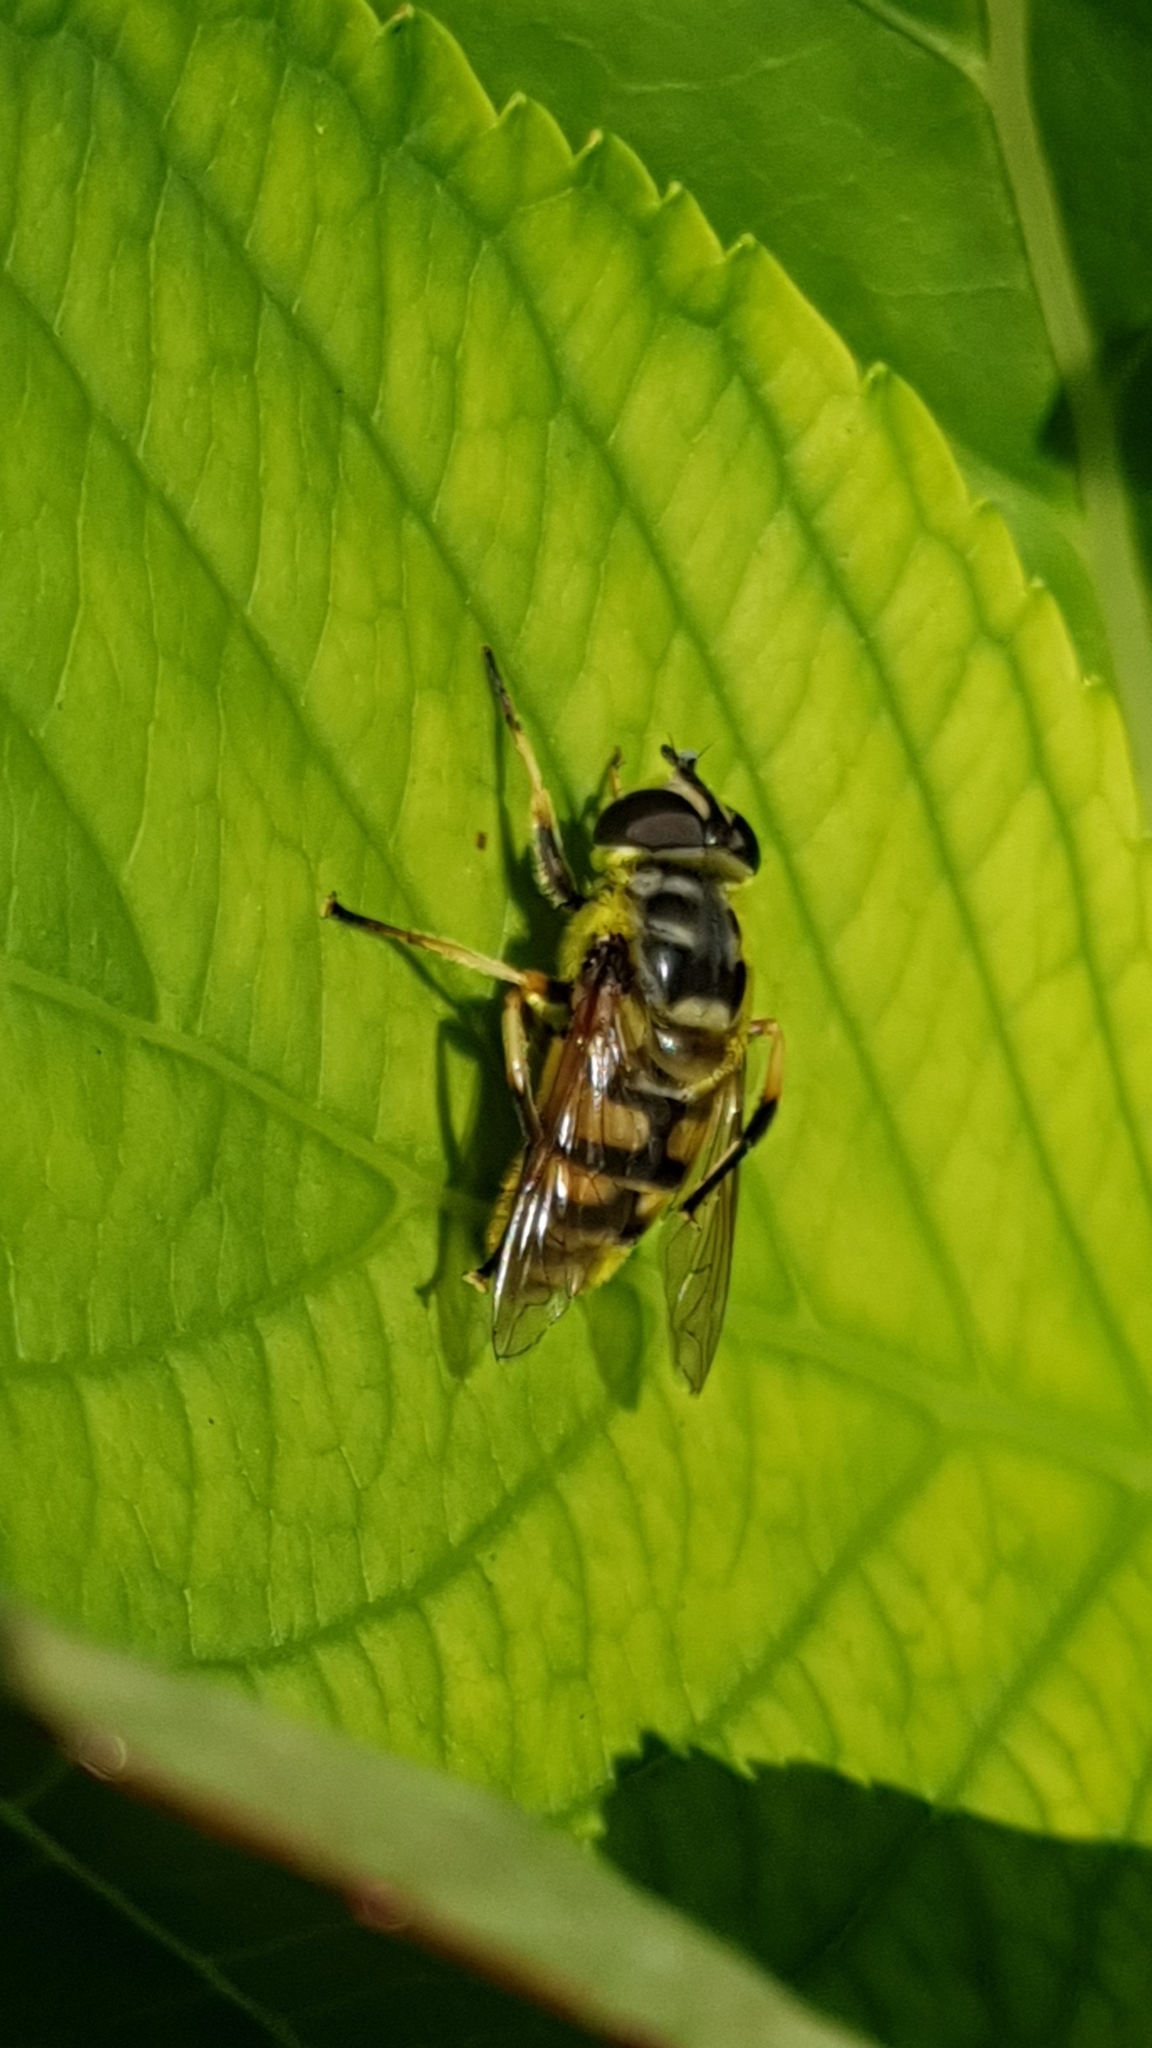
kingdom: Animalia
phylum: Arthropoda
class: Insecta
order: Diptera
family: Syrphidae
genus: Myathropa
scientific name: Myathropa florea
